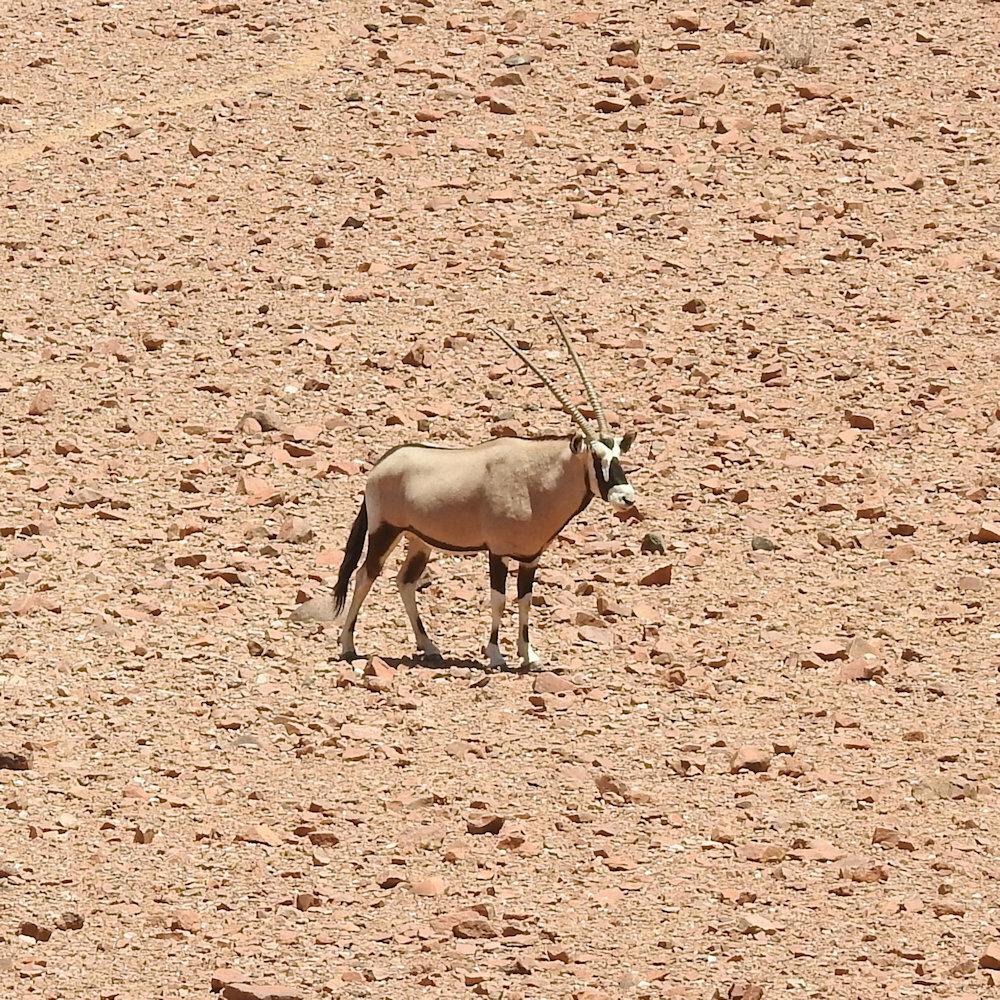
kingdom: Animalia
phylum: Chordata
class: Mammalia
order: Artiodactyla
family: Bovidae
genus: Oryx
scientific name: Oryx gazella
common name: Gemsbok
